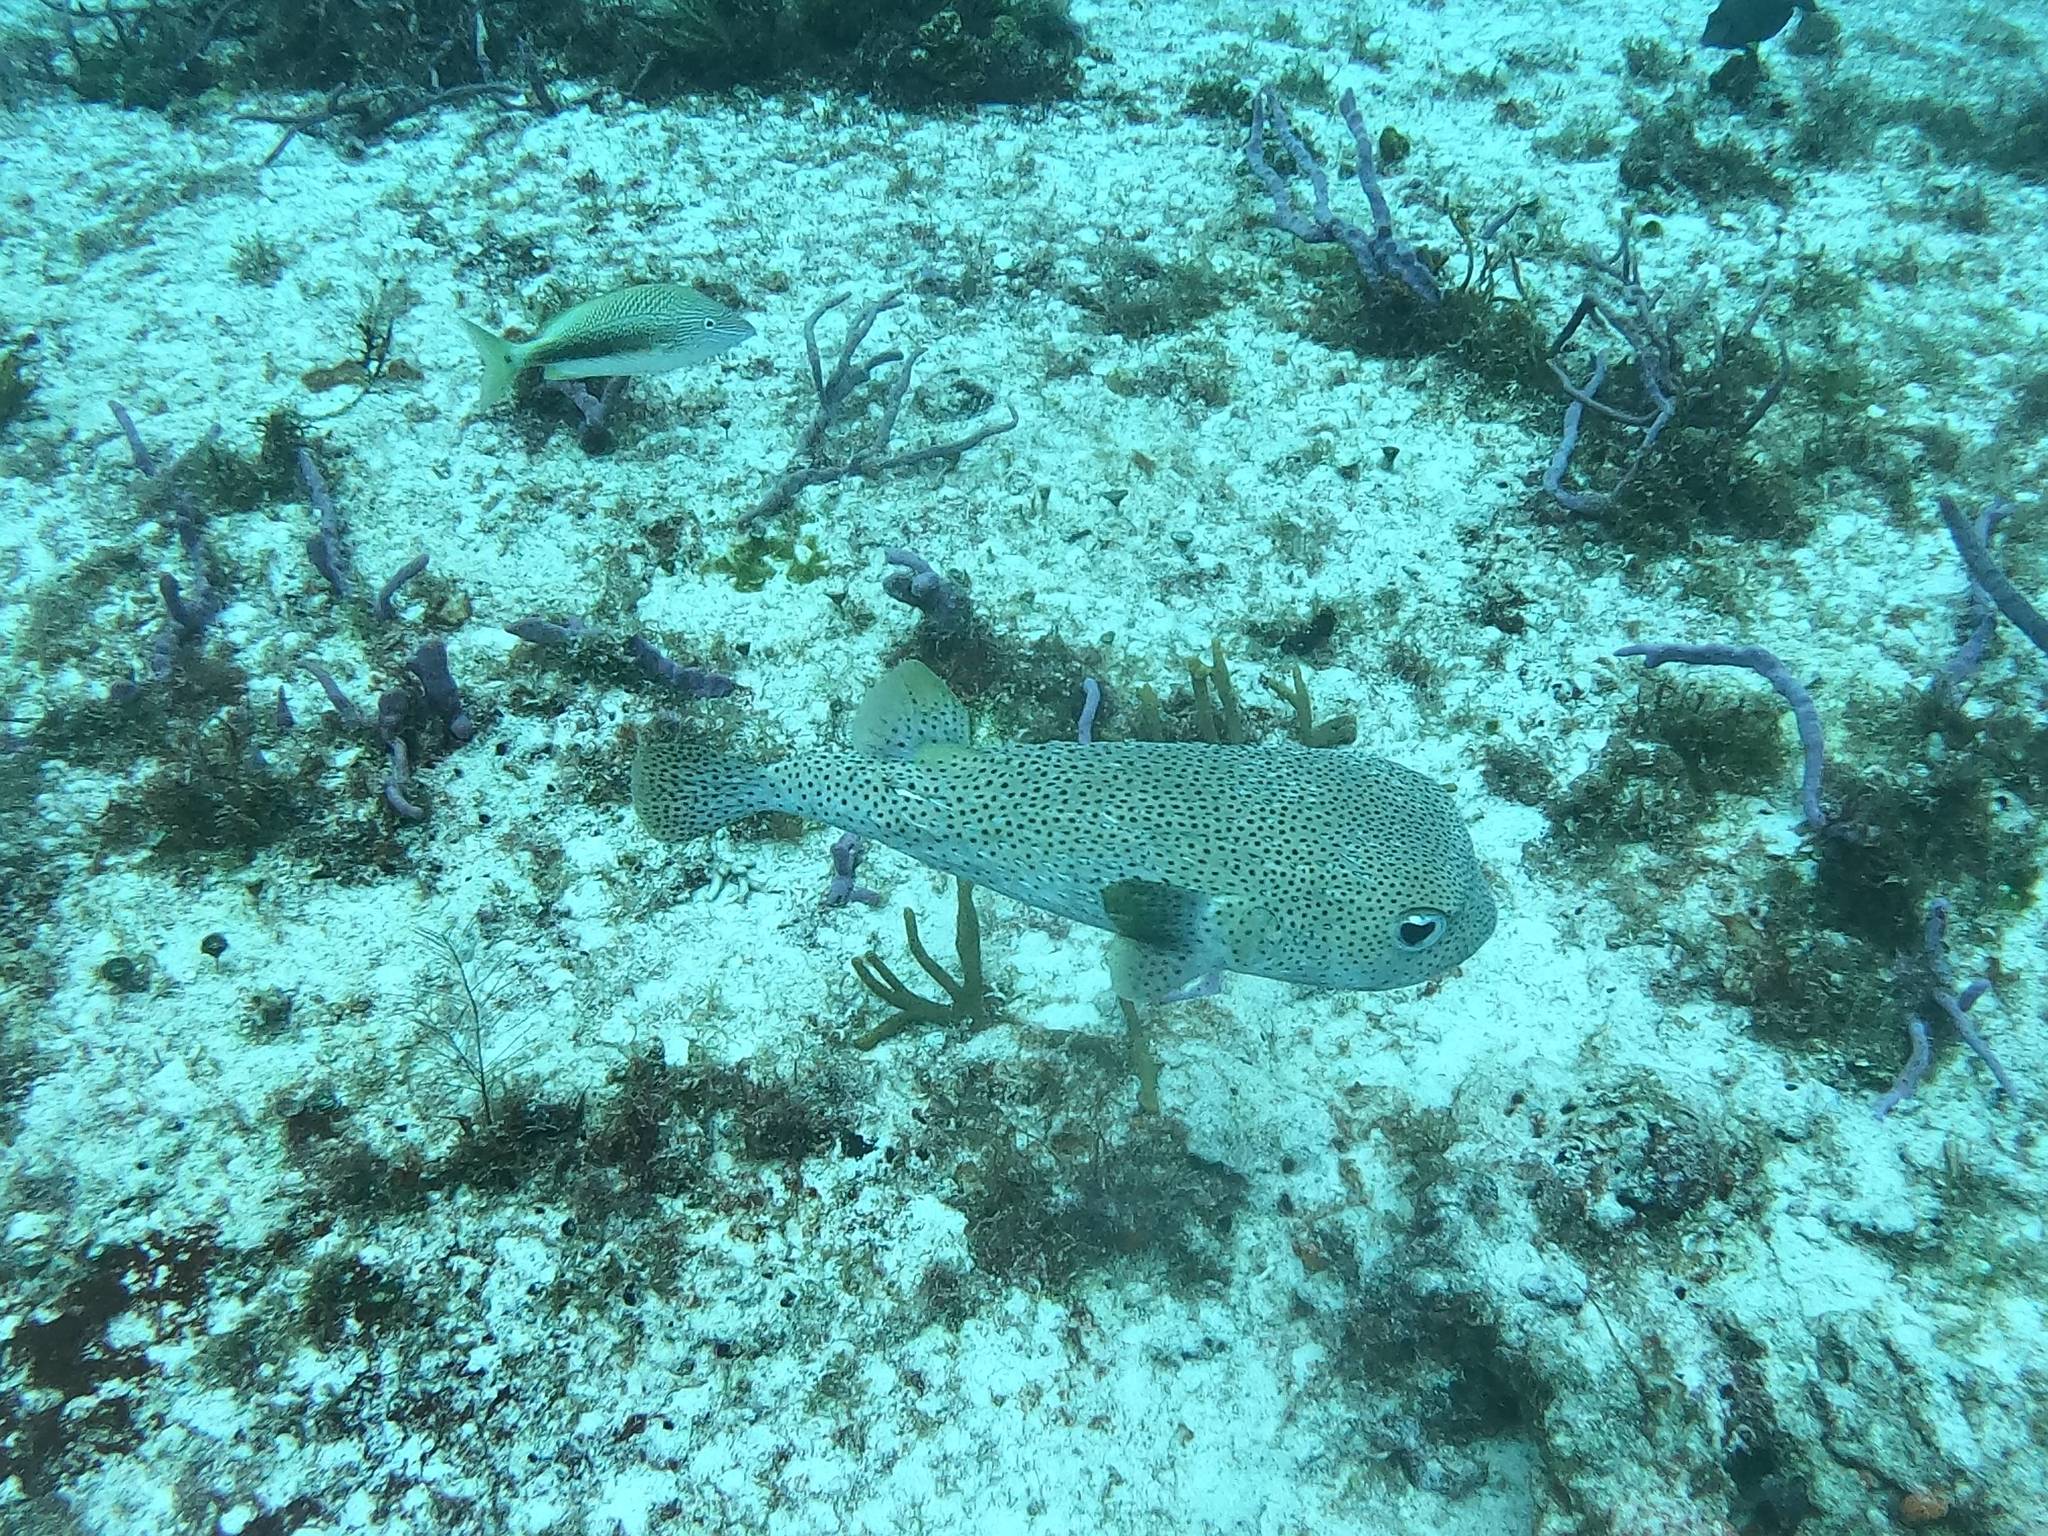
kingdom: Animalia
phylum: Chordata
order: Tetraodontiformes
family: Diodontidae
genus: Diodon
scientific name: Diodon hystrix
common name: Giant porcupinefish
